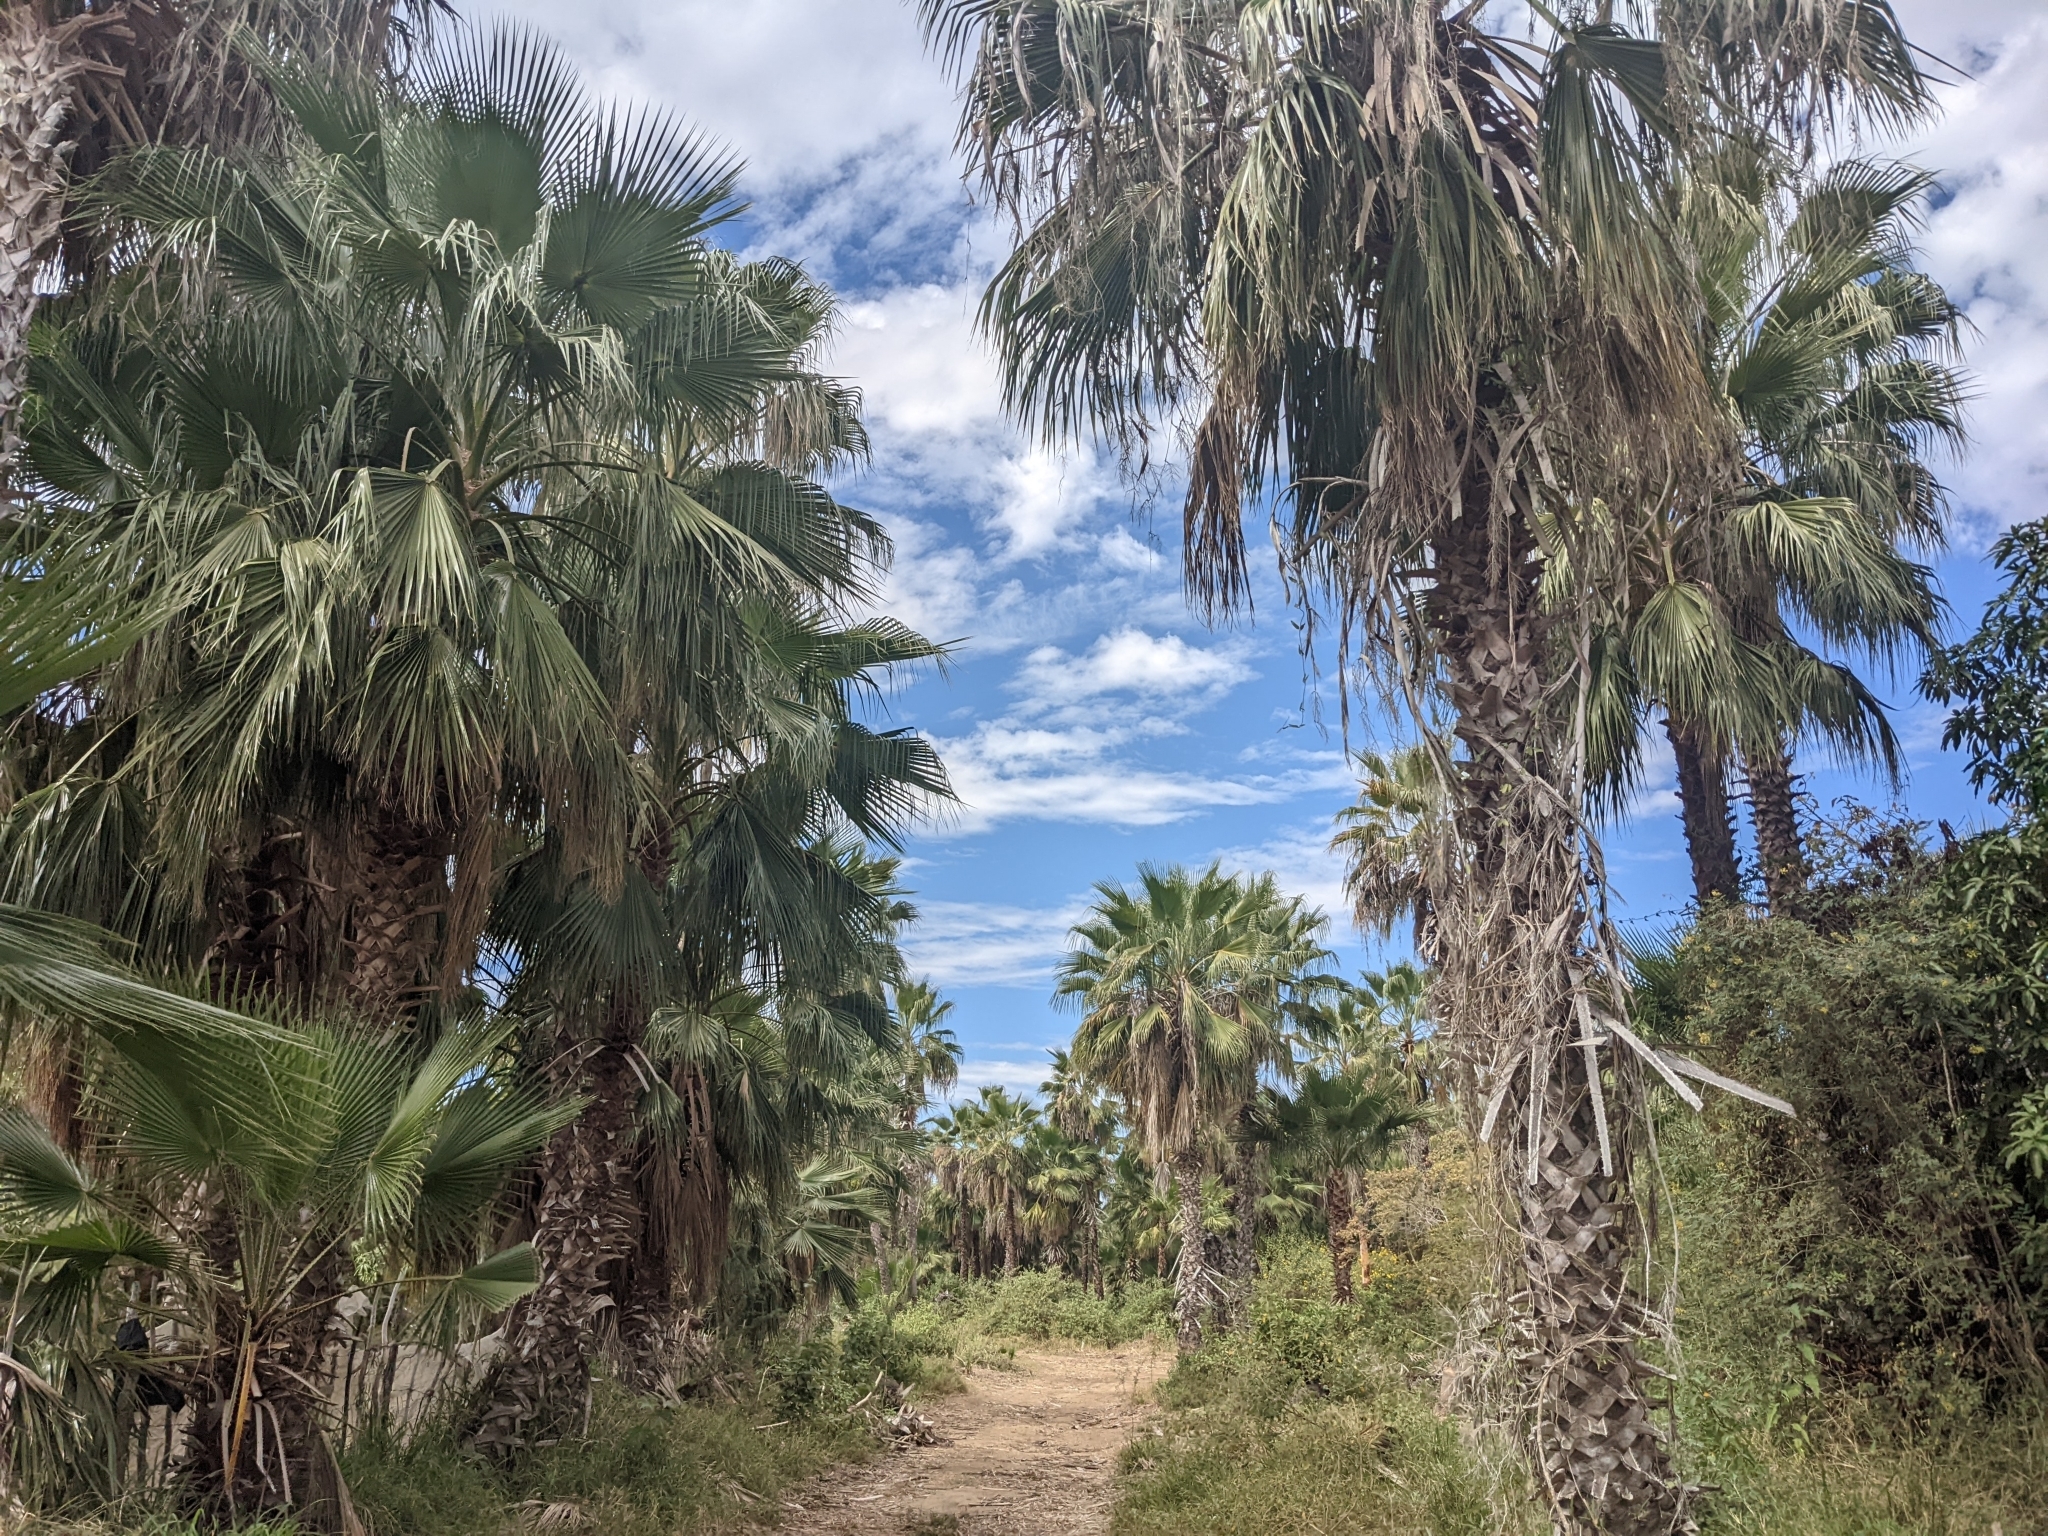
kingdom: Plantae
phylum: Tracheophyta
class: Liliopsida
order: Arecales
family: Arecaceae
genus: Washingtonia
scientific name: Washingtonia robusta
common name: Mexican fan palm
